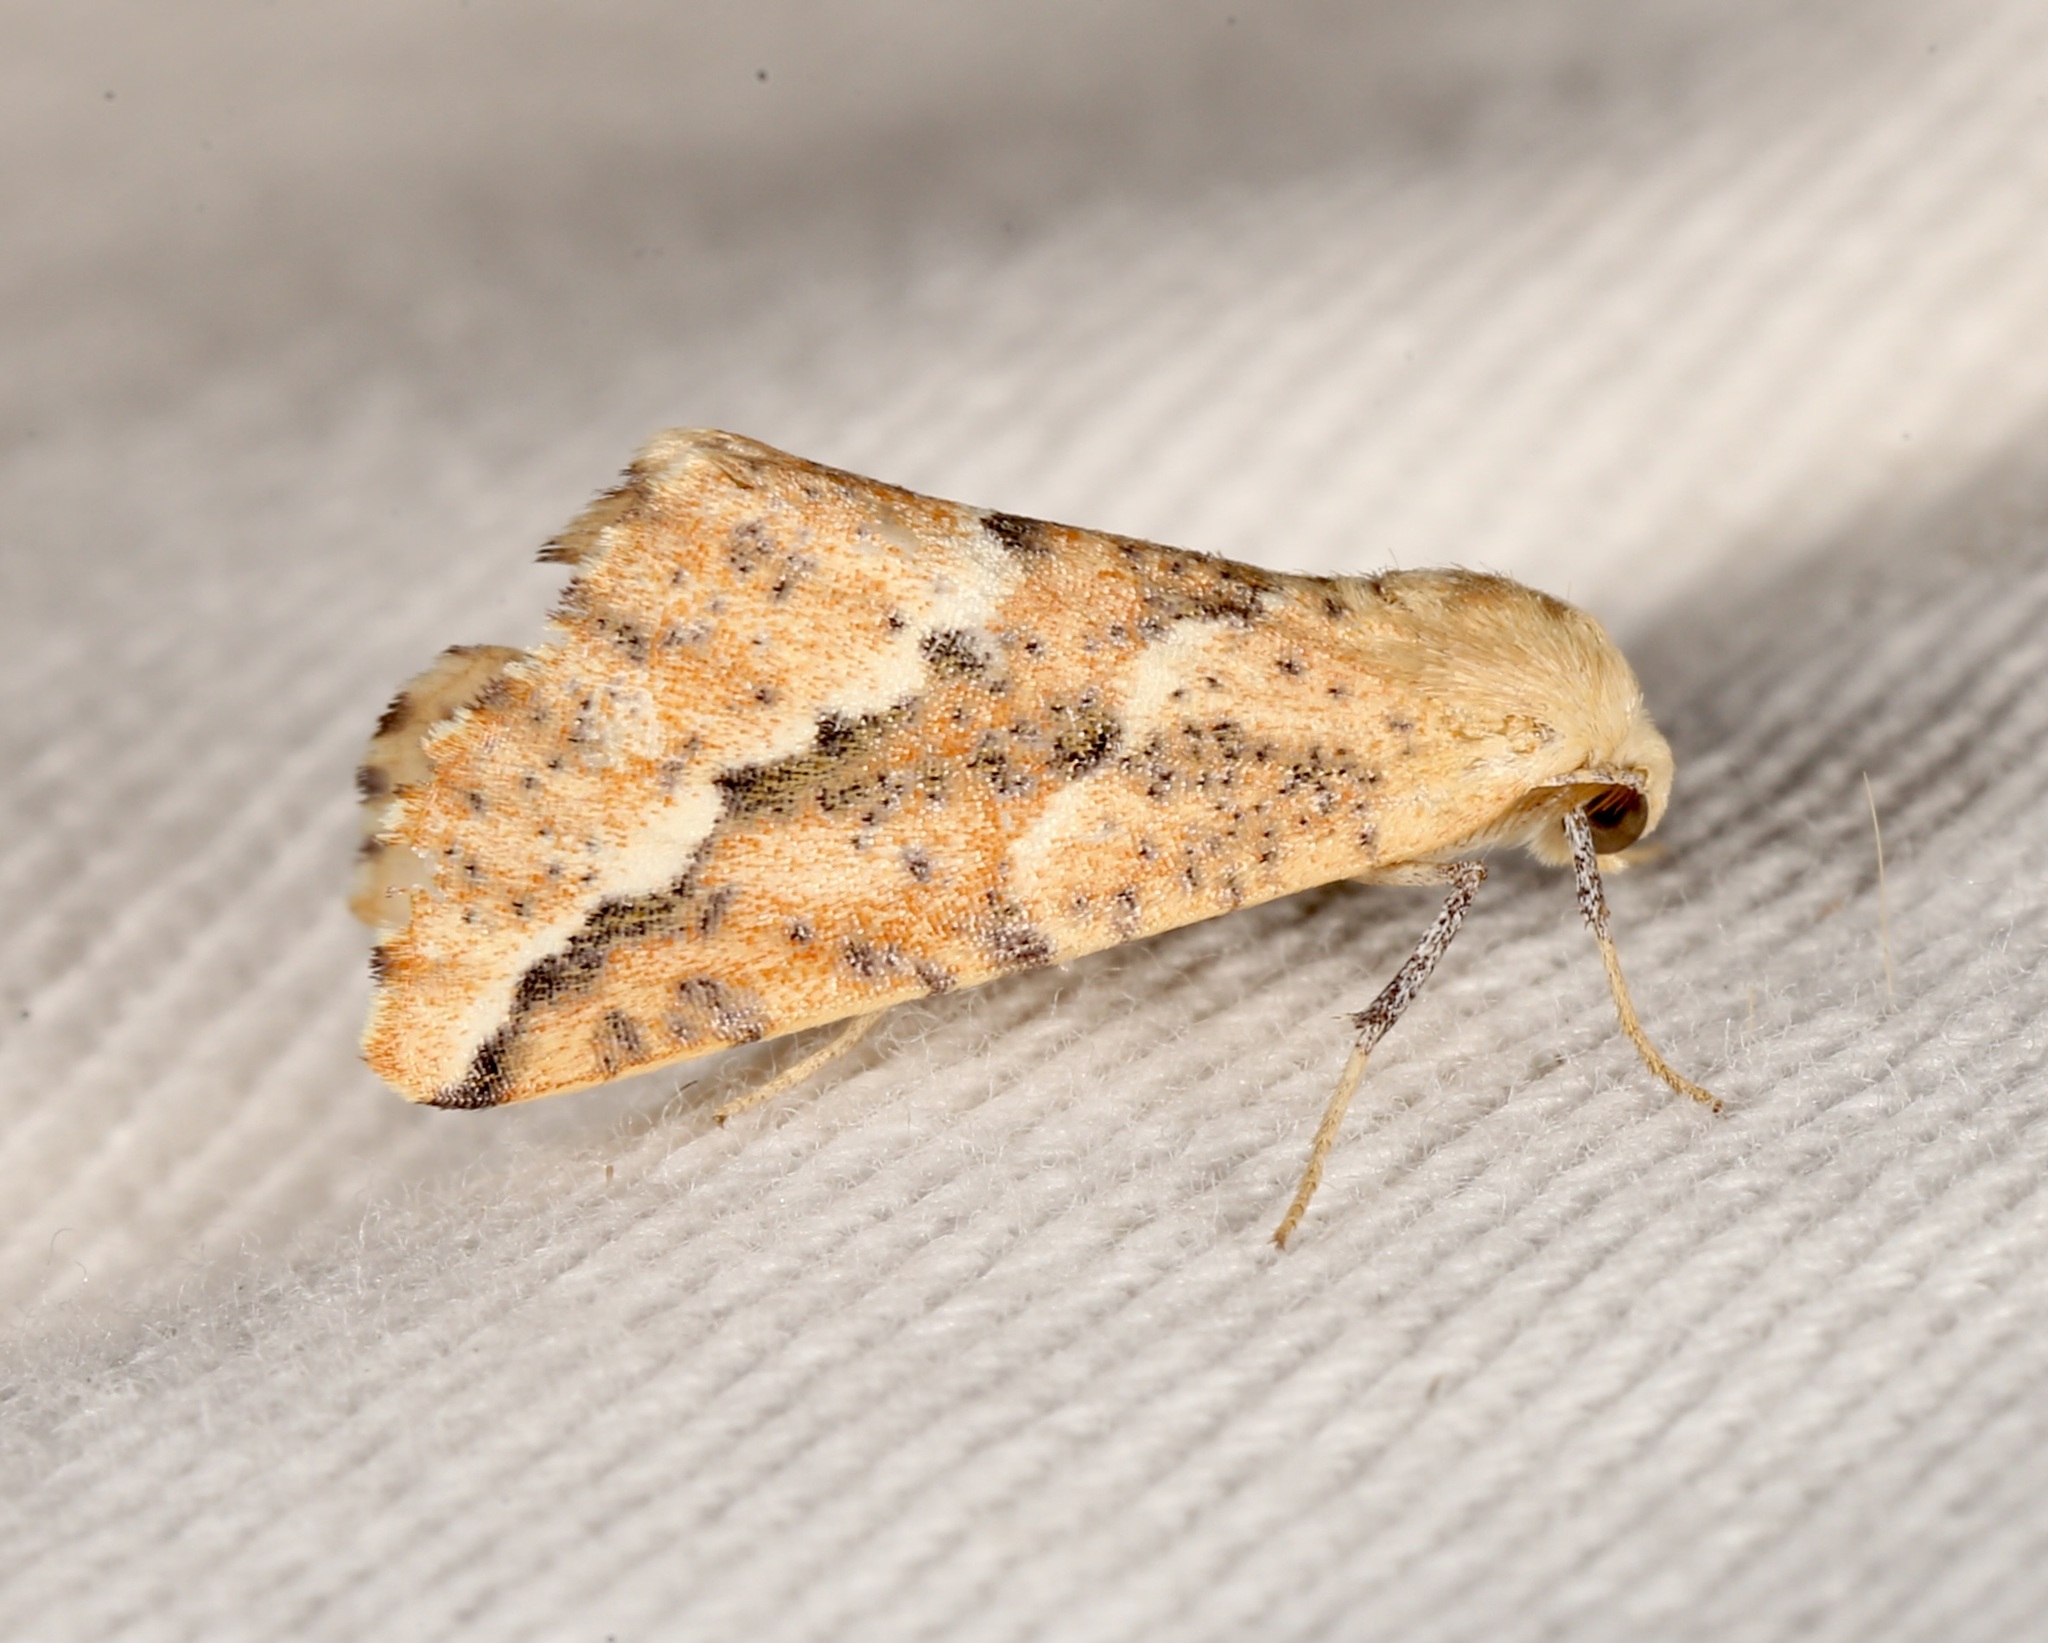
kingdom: Animalia
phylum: Arthropoda
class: Insecta
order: Lepidoptera
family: Geometridae
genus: Sicya
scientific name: Sicya morsicaria
